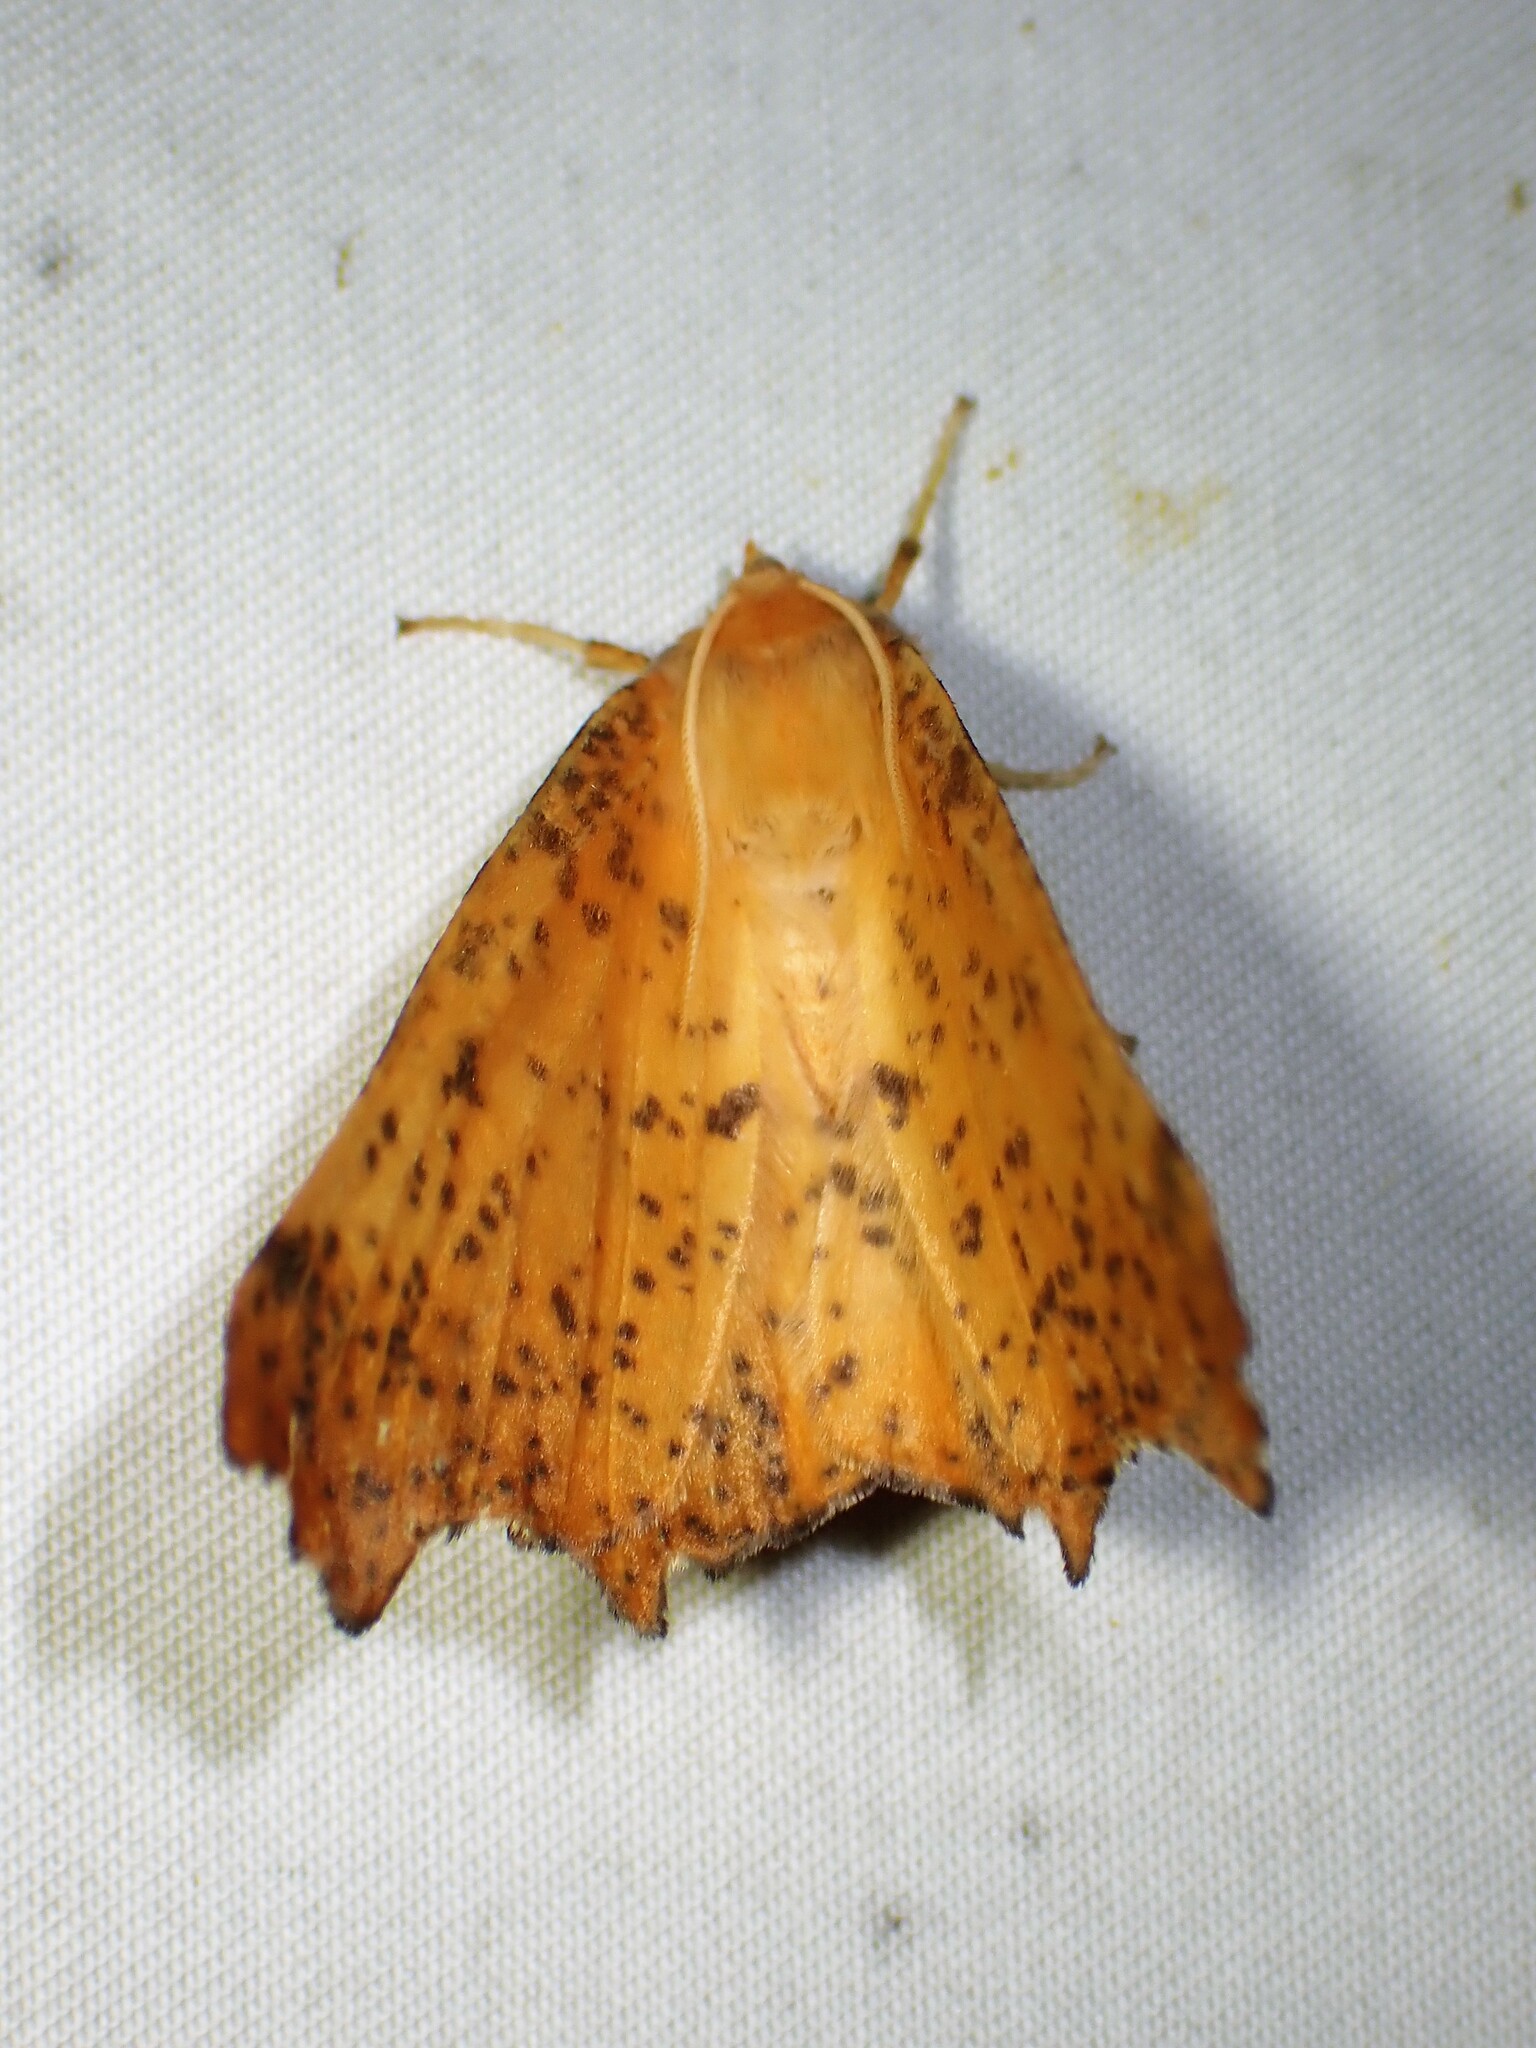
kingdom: Animalia
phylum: Arthropoda
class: Insecta
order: Lepidoptera
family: Geometridae
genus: Ennomos
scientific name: Ennomos magnaria
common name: Maple spanworm
